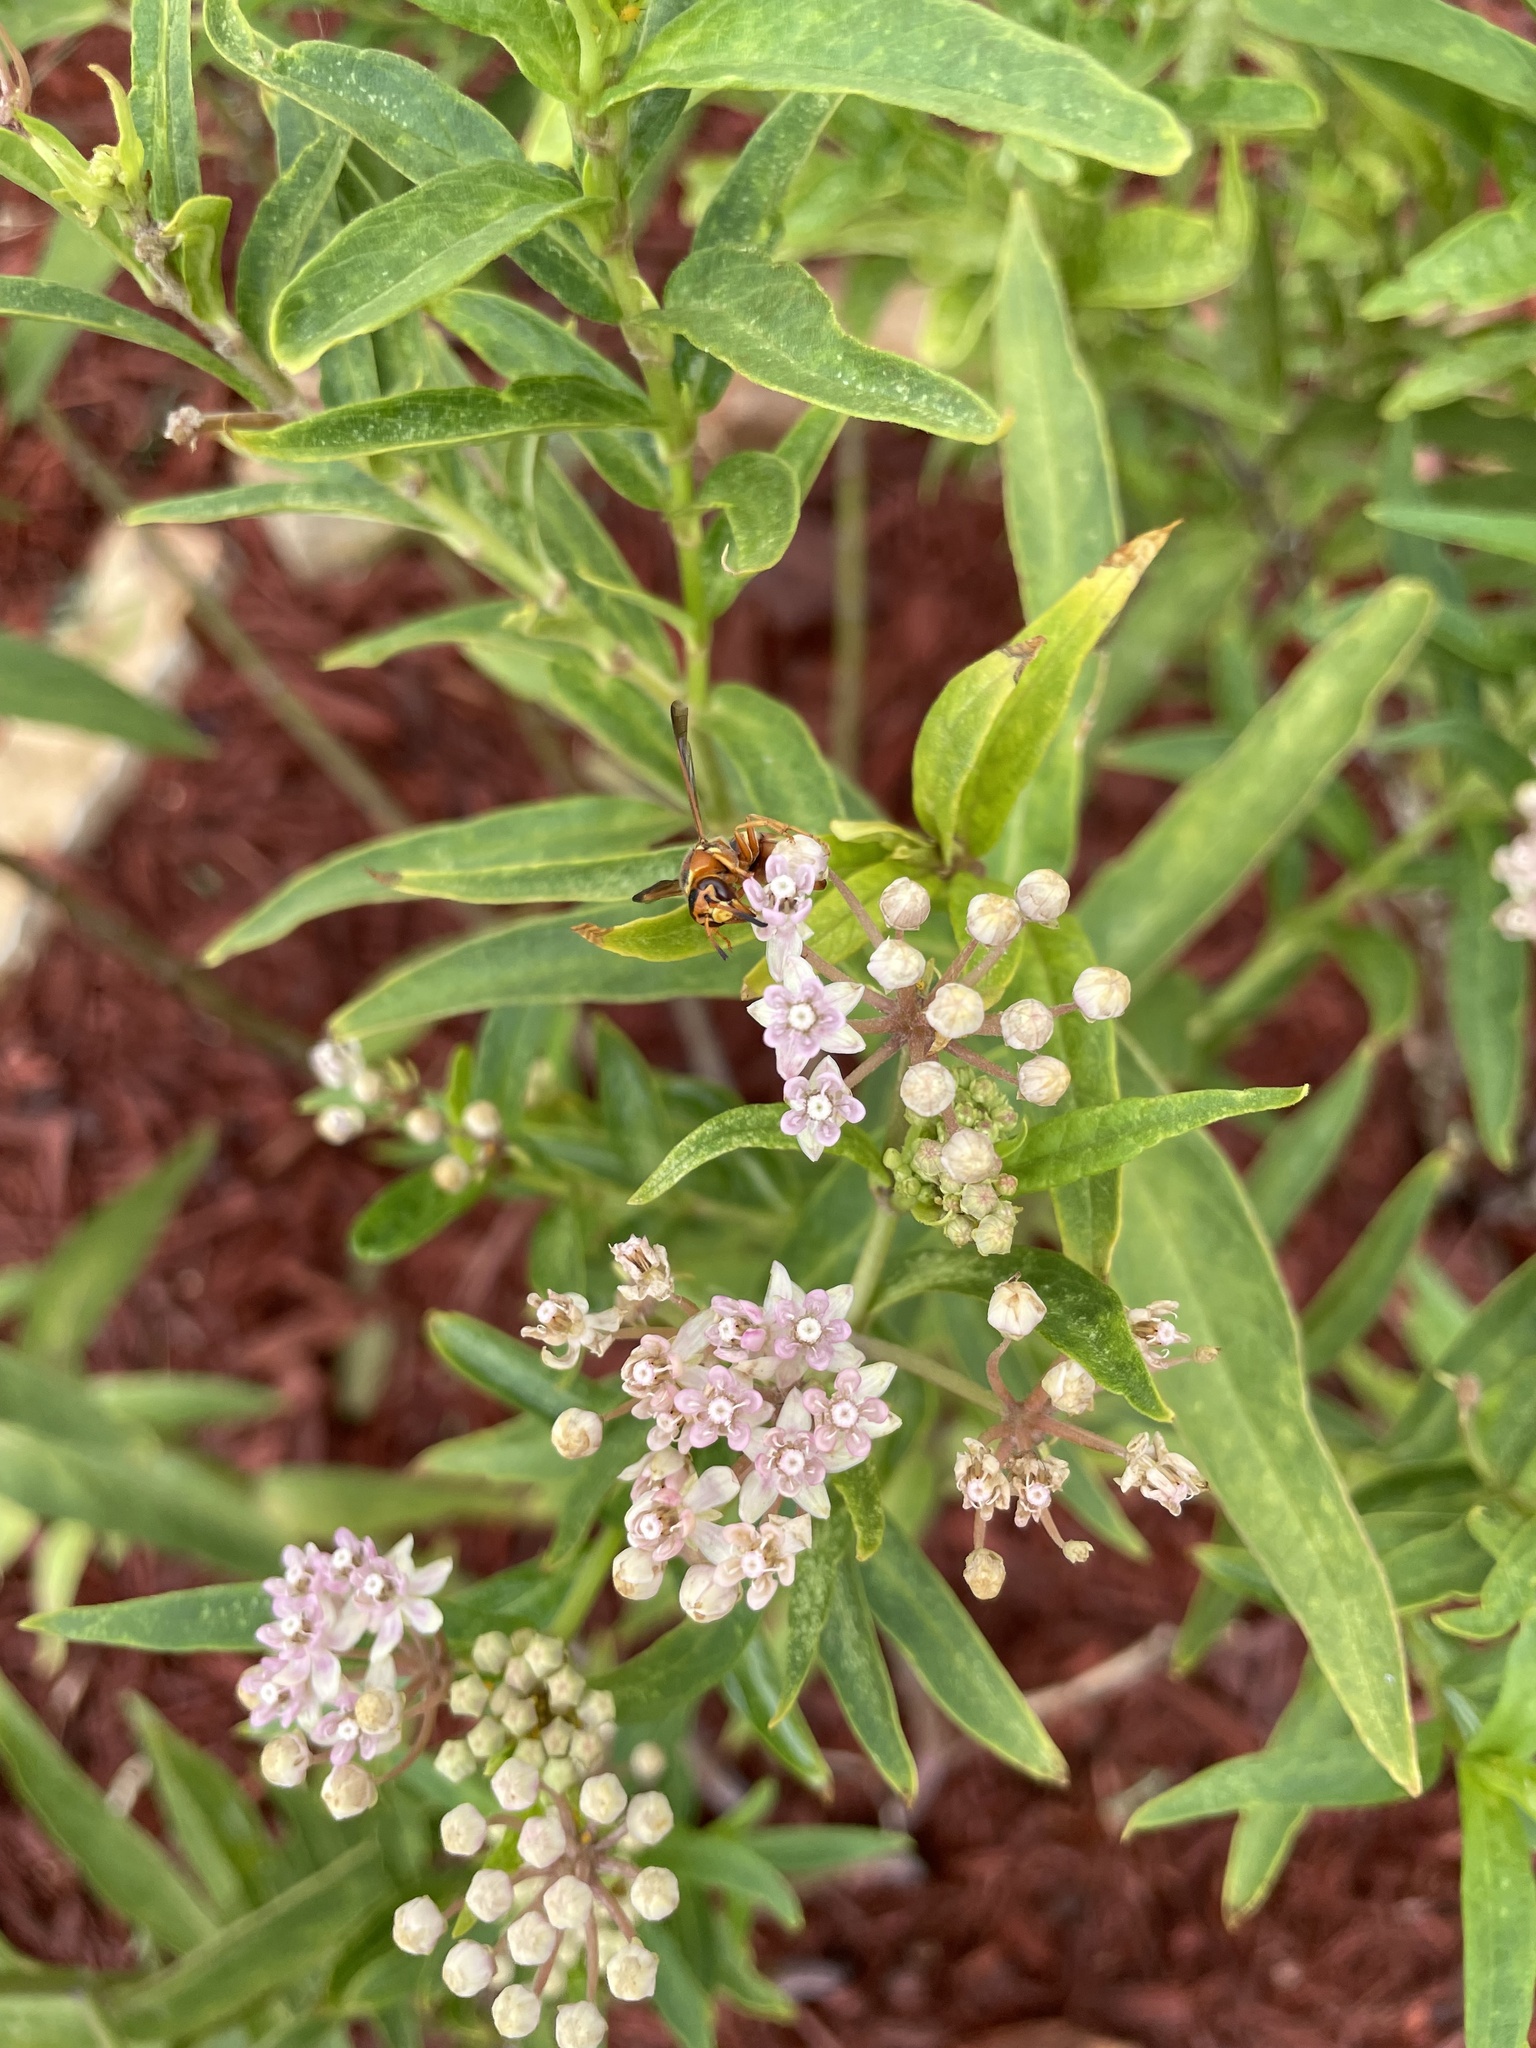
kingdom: Animalia
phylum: Arthropoda
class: Insecta
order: Hymenoptera
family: Eumenidae
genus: Euodynerus
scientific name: Euodynerus
